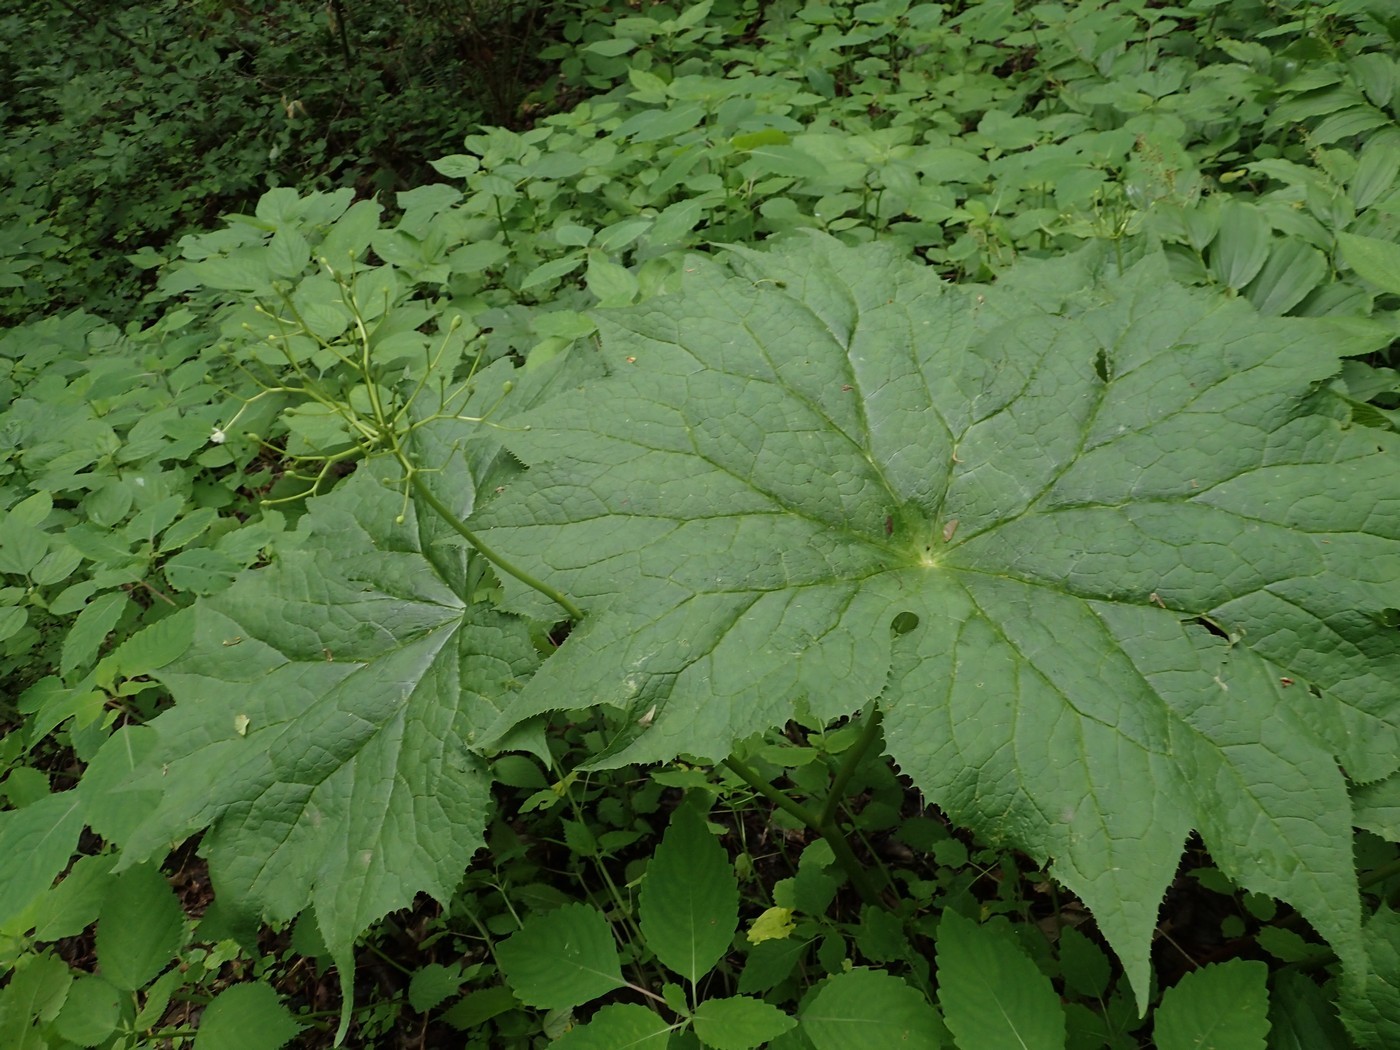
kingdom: Plantae
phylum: Tracheophyta
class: Magnoliopsida
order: Ranunculales
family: Berberidaceae
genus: Diphylleia
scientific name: Diphylleia cymosa
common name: Umbrella-leaf
